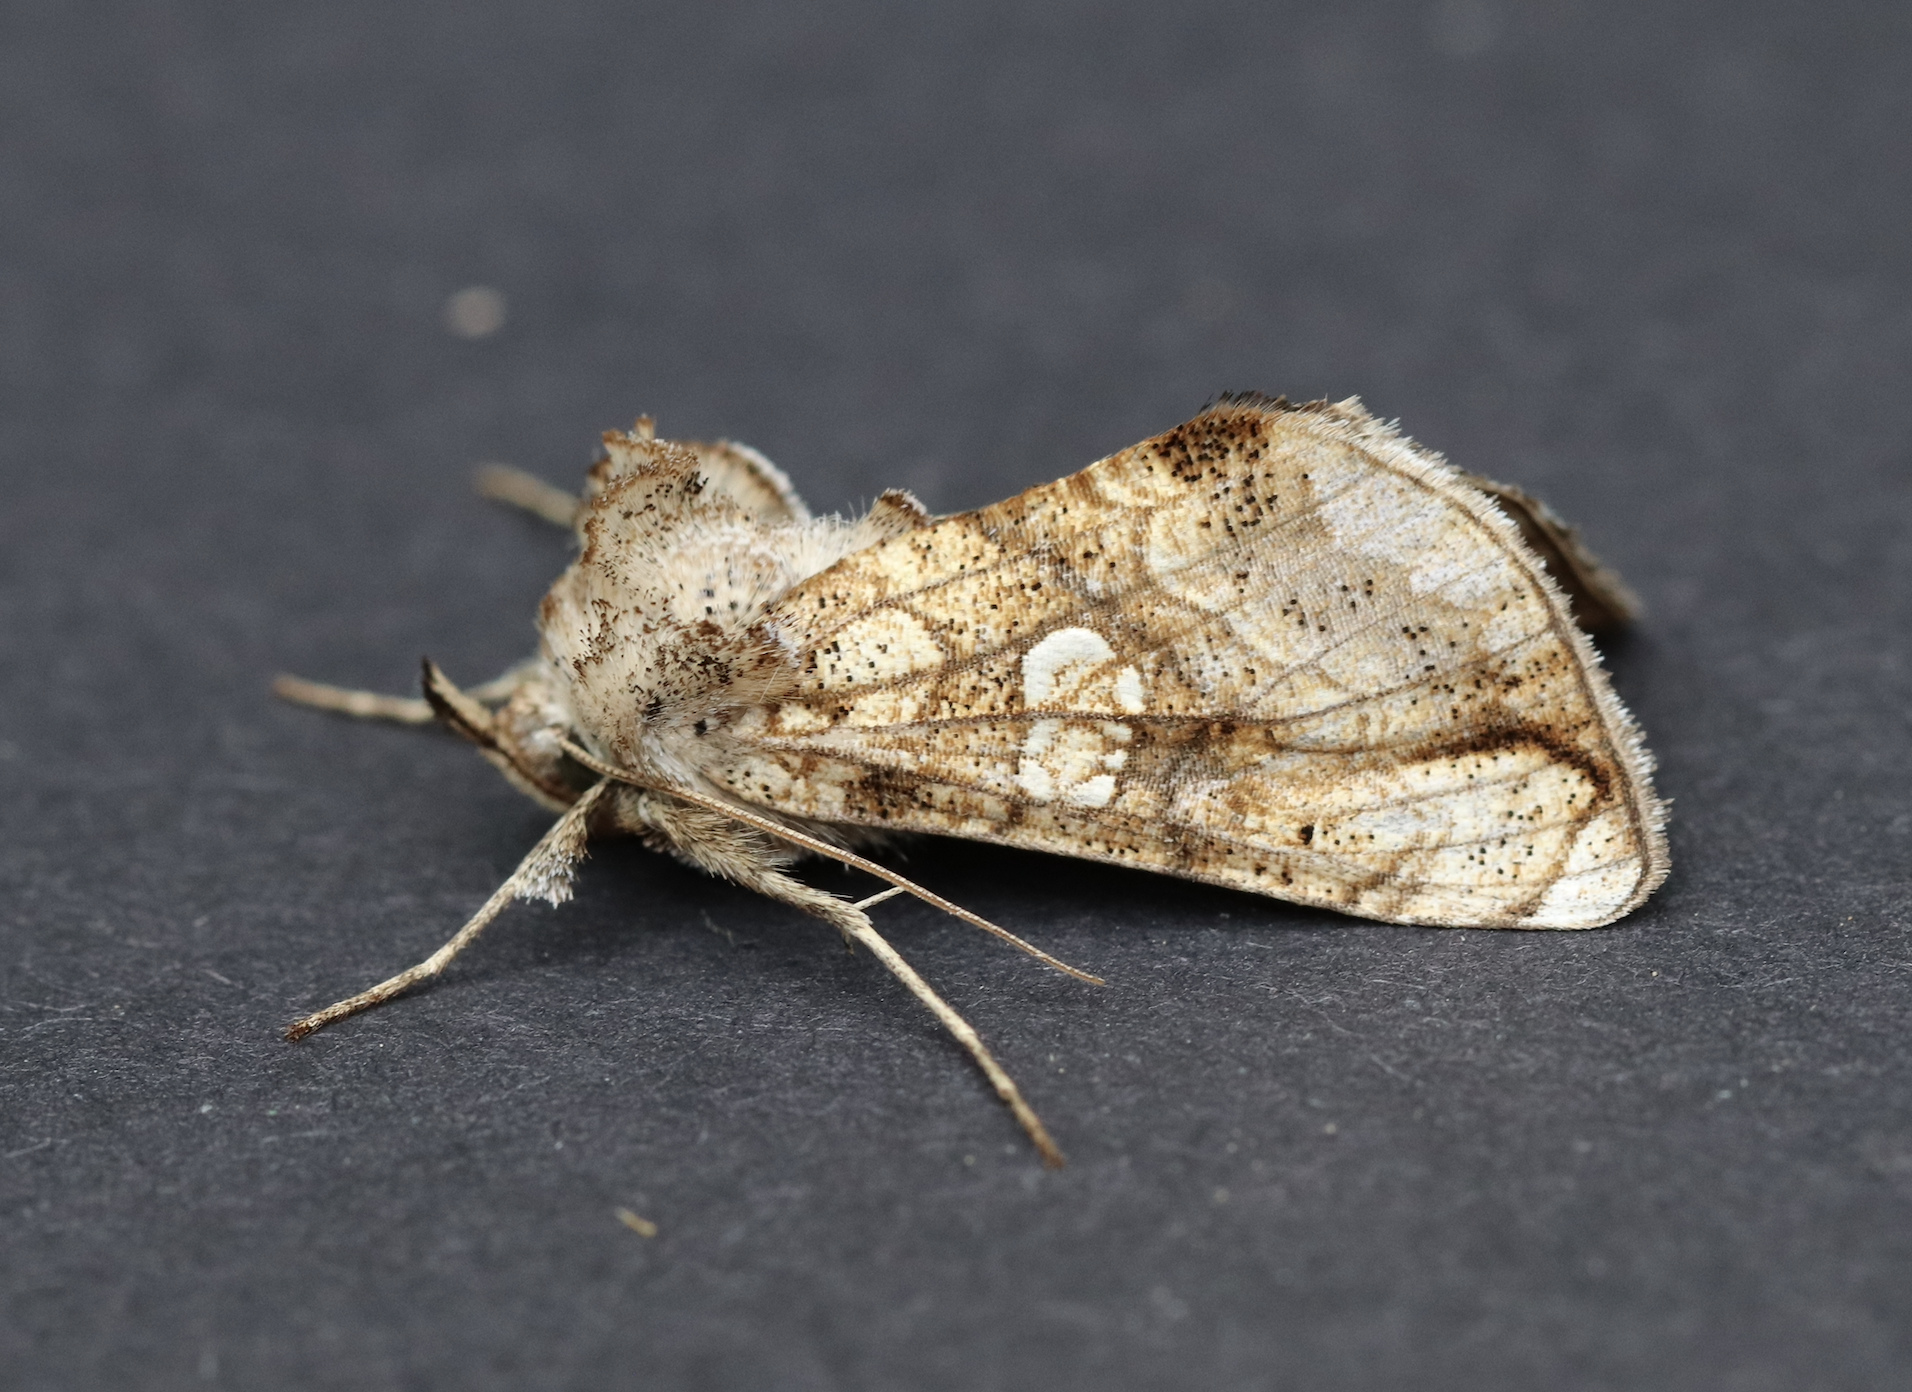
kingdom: Animalia
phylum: Arthropoda
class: Insecta
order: Lepidoptera
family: Noctuidae
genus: Polychrysia
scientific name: Polychrysia esmeralda
